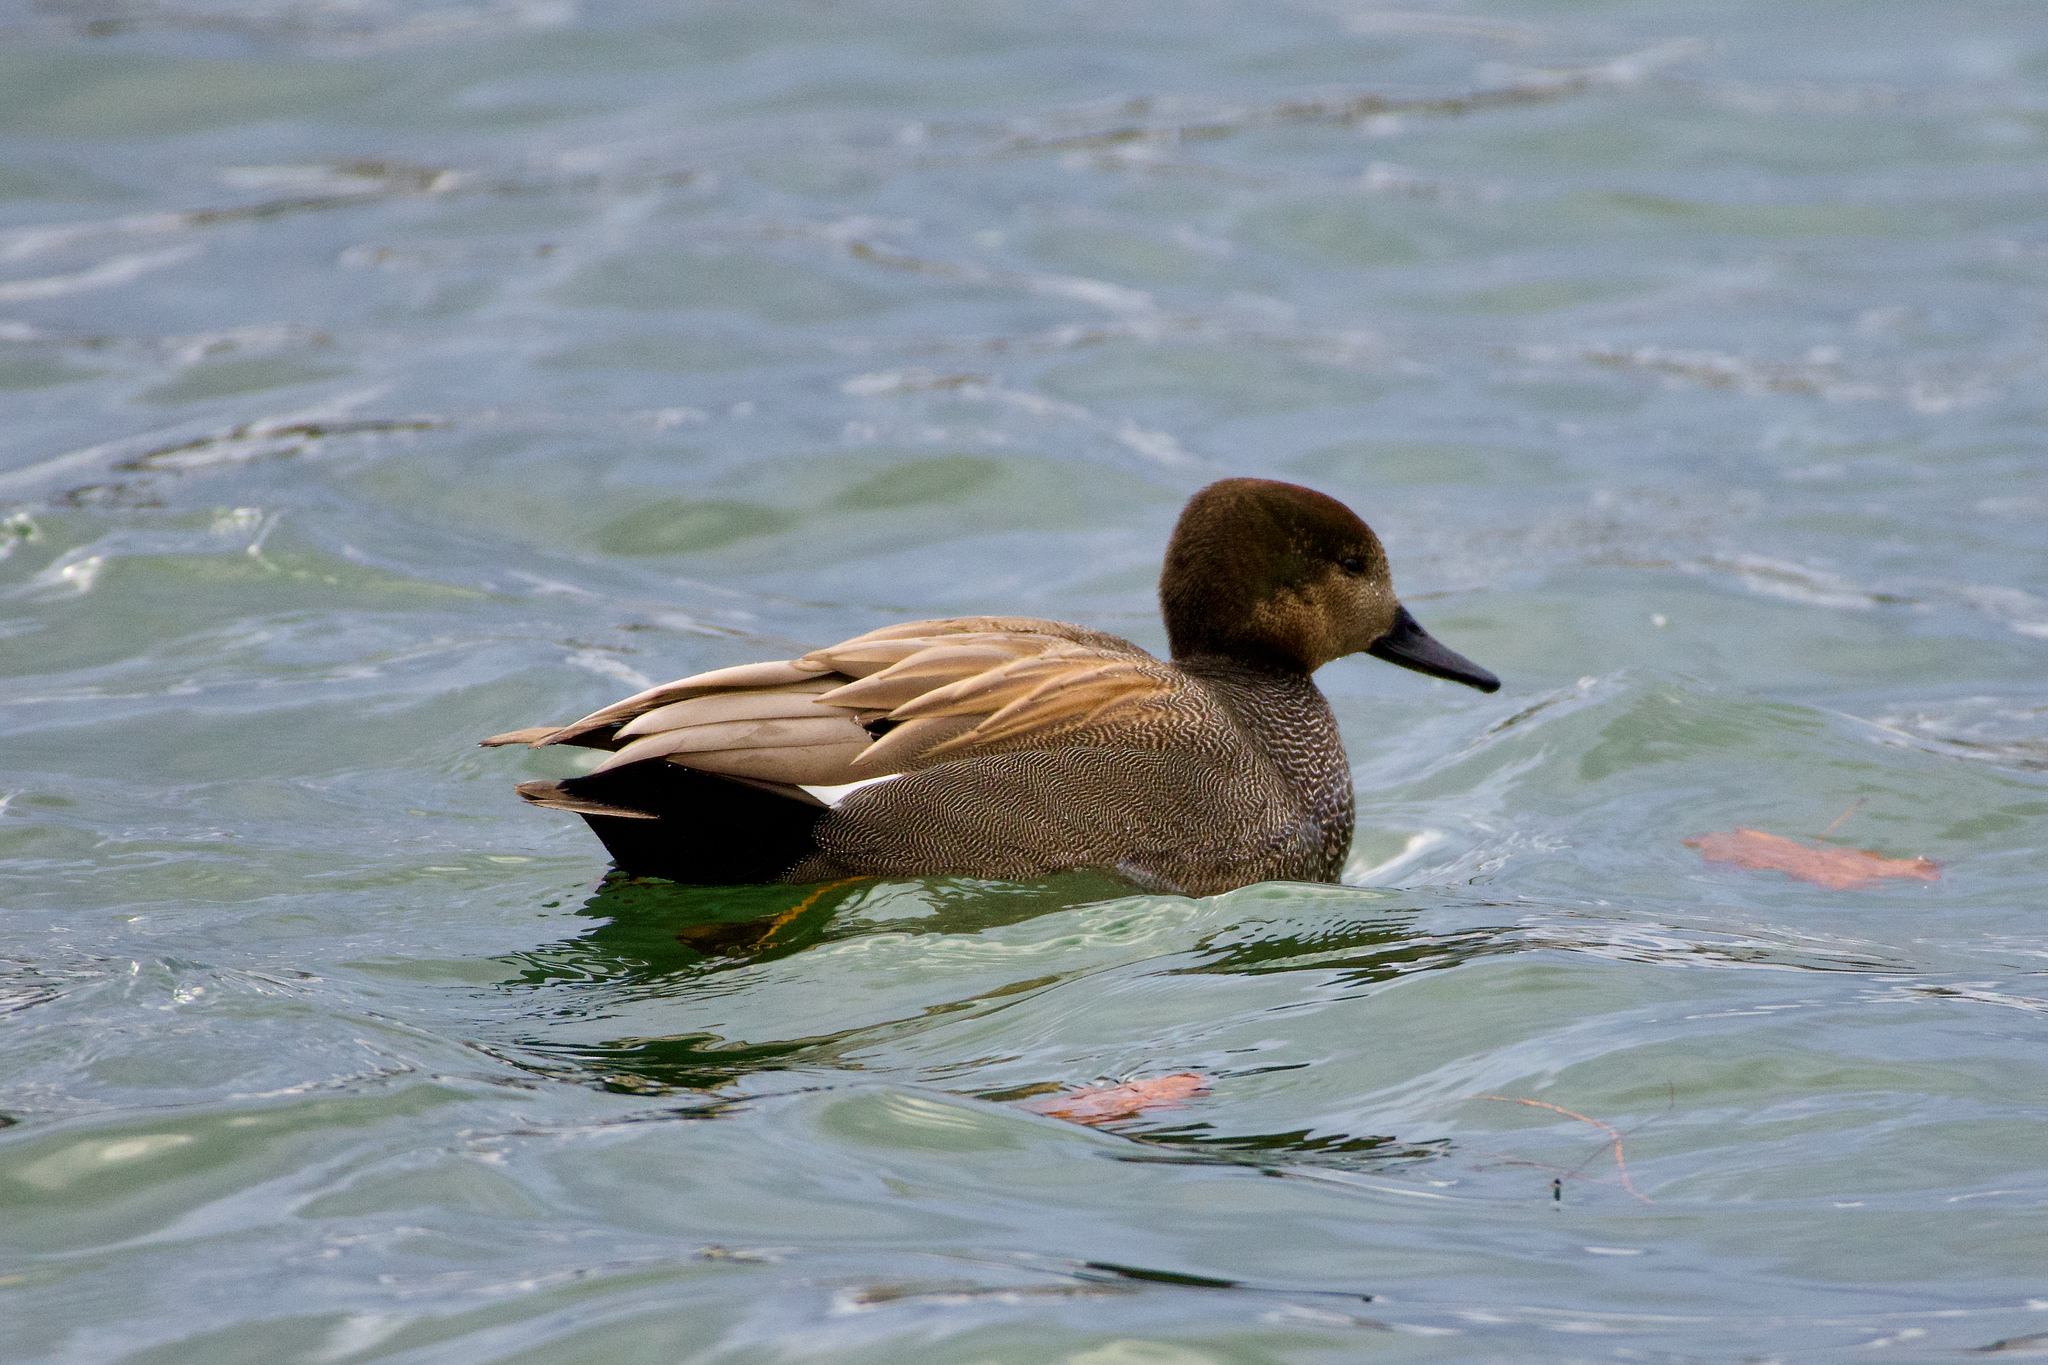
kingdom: Animalia
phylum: Chordata
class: Aves
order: Anseriformes
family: Anatidae
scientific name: Anatidae
